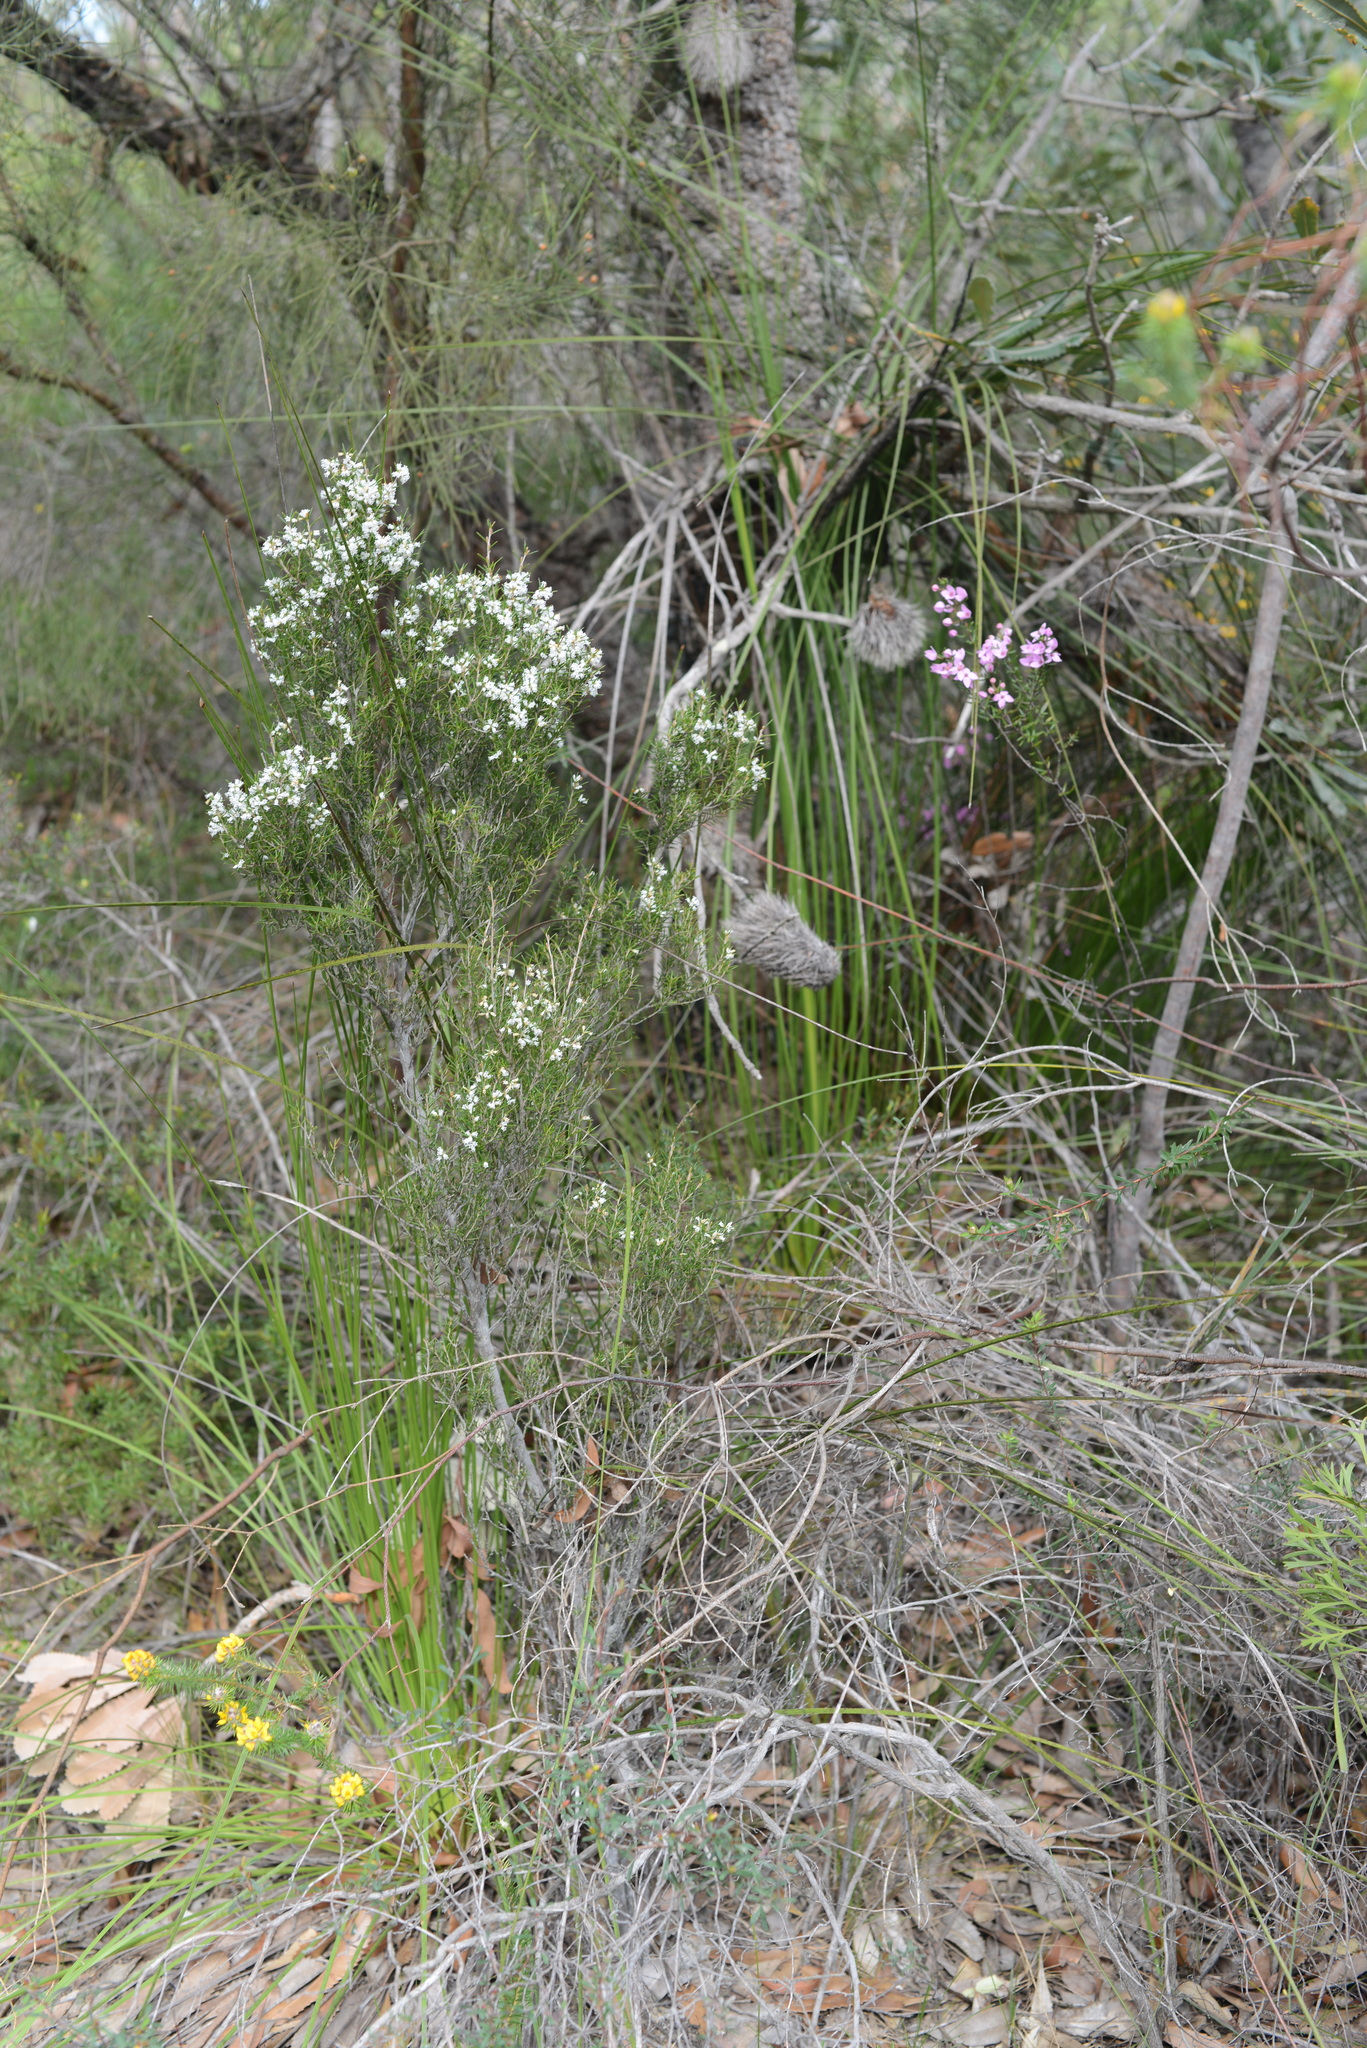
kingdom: Plantae
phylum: Tracheophyta
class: Magnoliopsida
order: Ericales
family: Ericaceae
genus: Lissanthe
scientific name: Lissanthe strigosa
